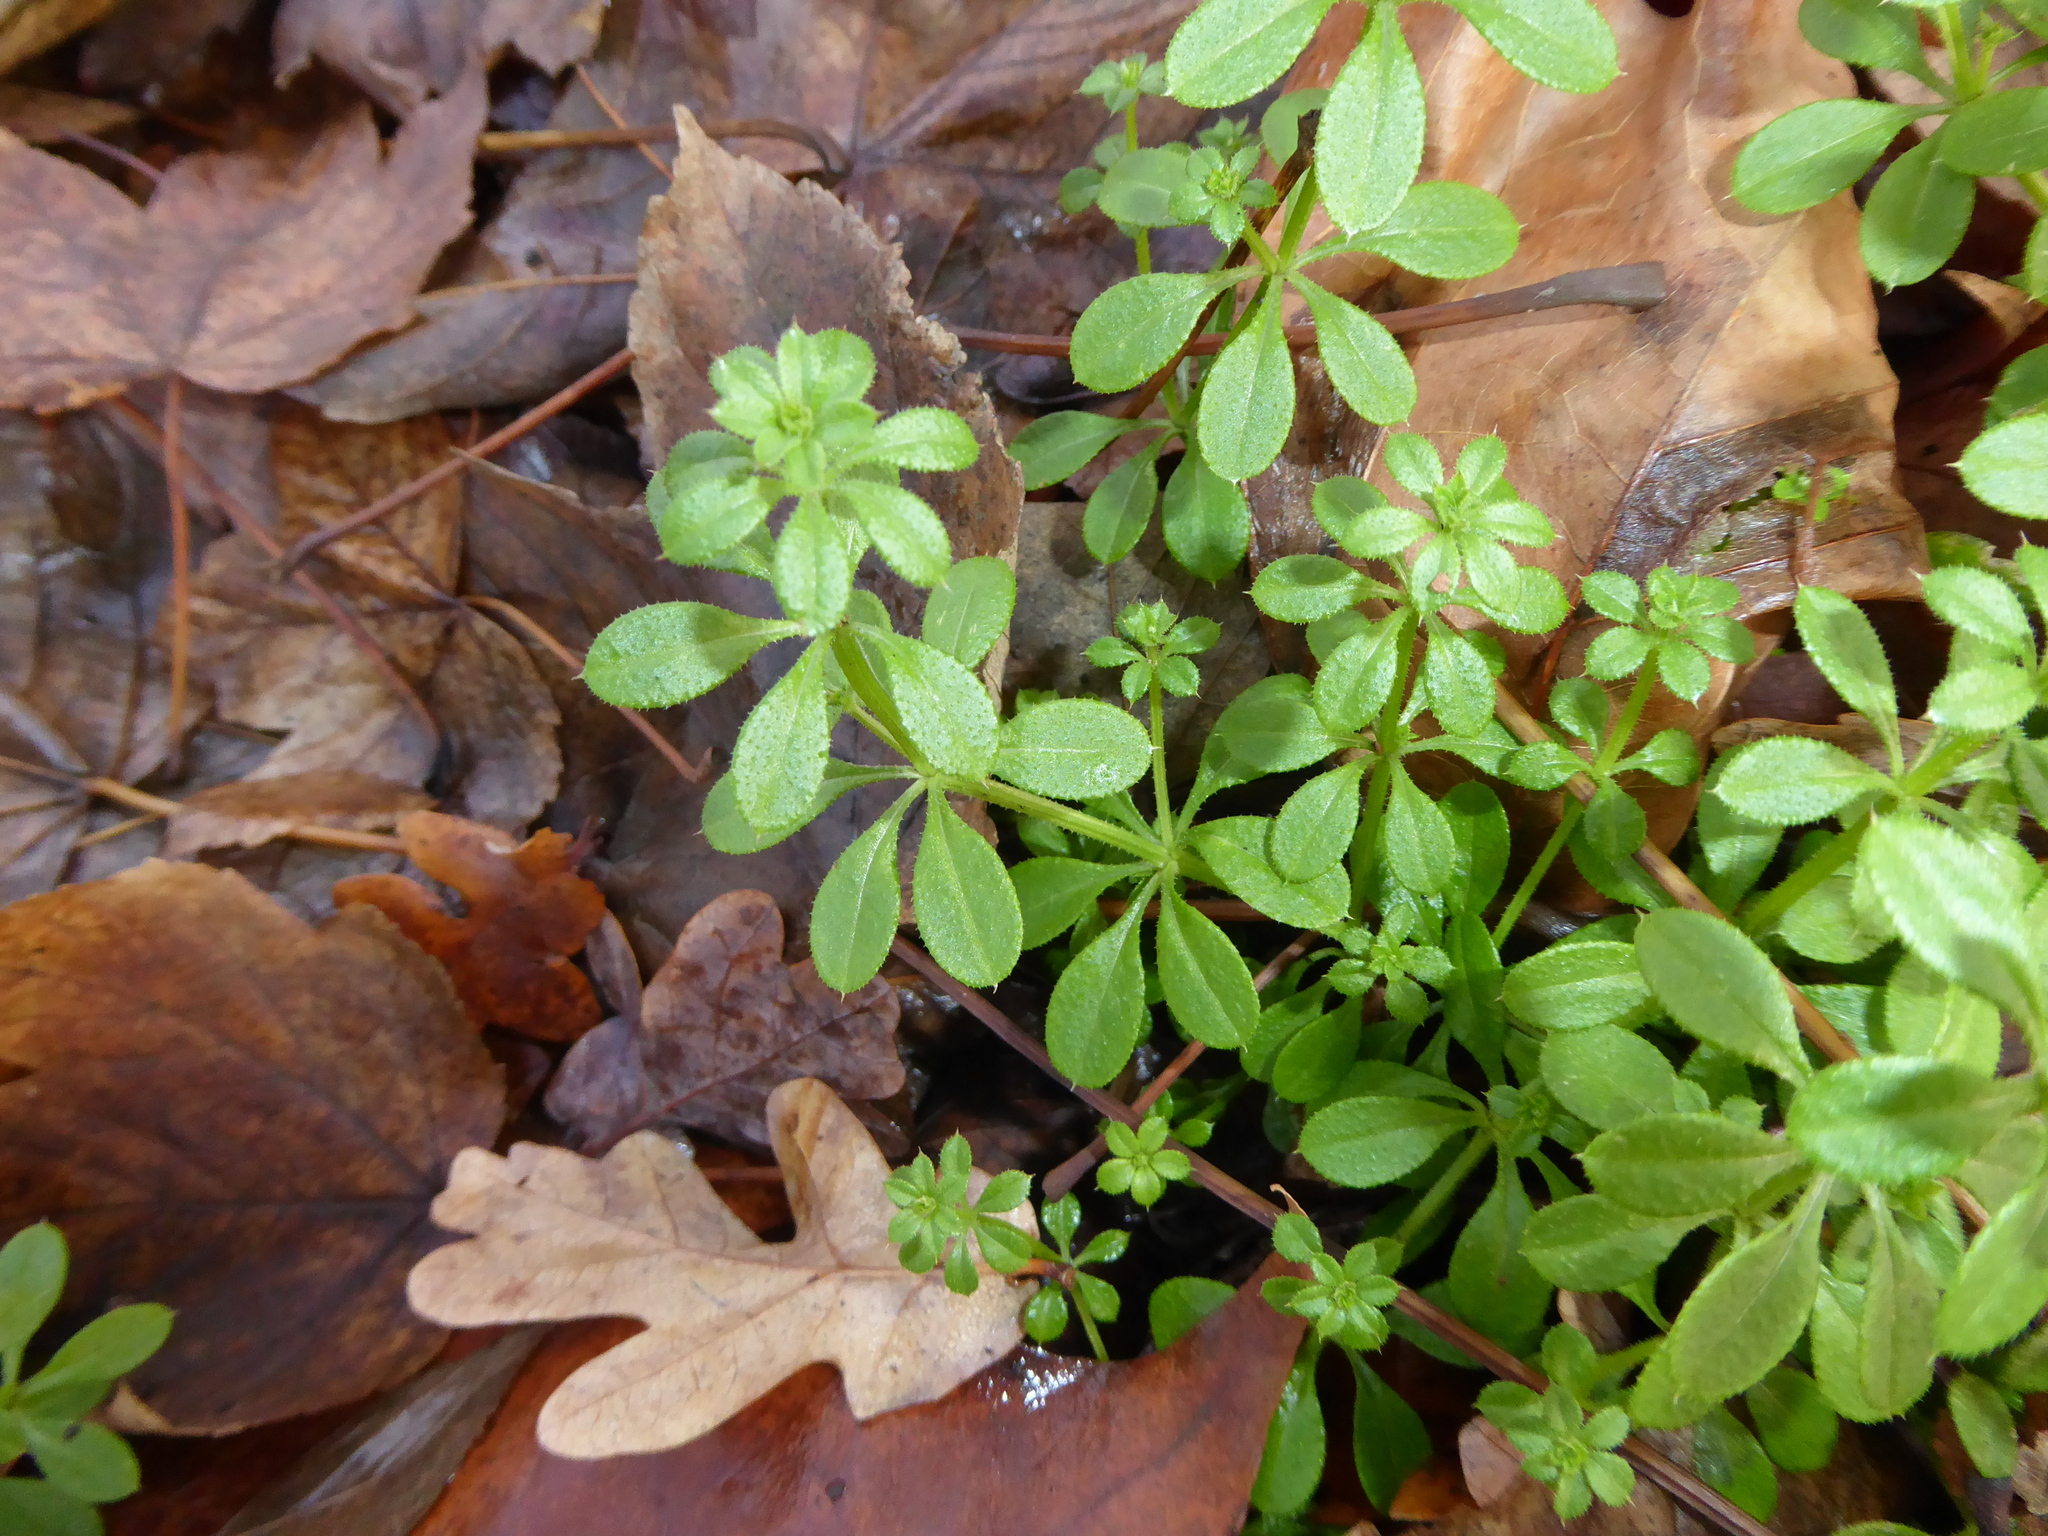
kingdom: Plantae
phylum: Tracheophyta
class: Magnoliopsida
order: Gentianales
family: Rubiaceae
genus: Galium
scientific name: Galium aparine
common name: Cleavers
